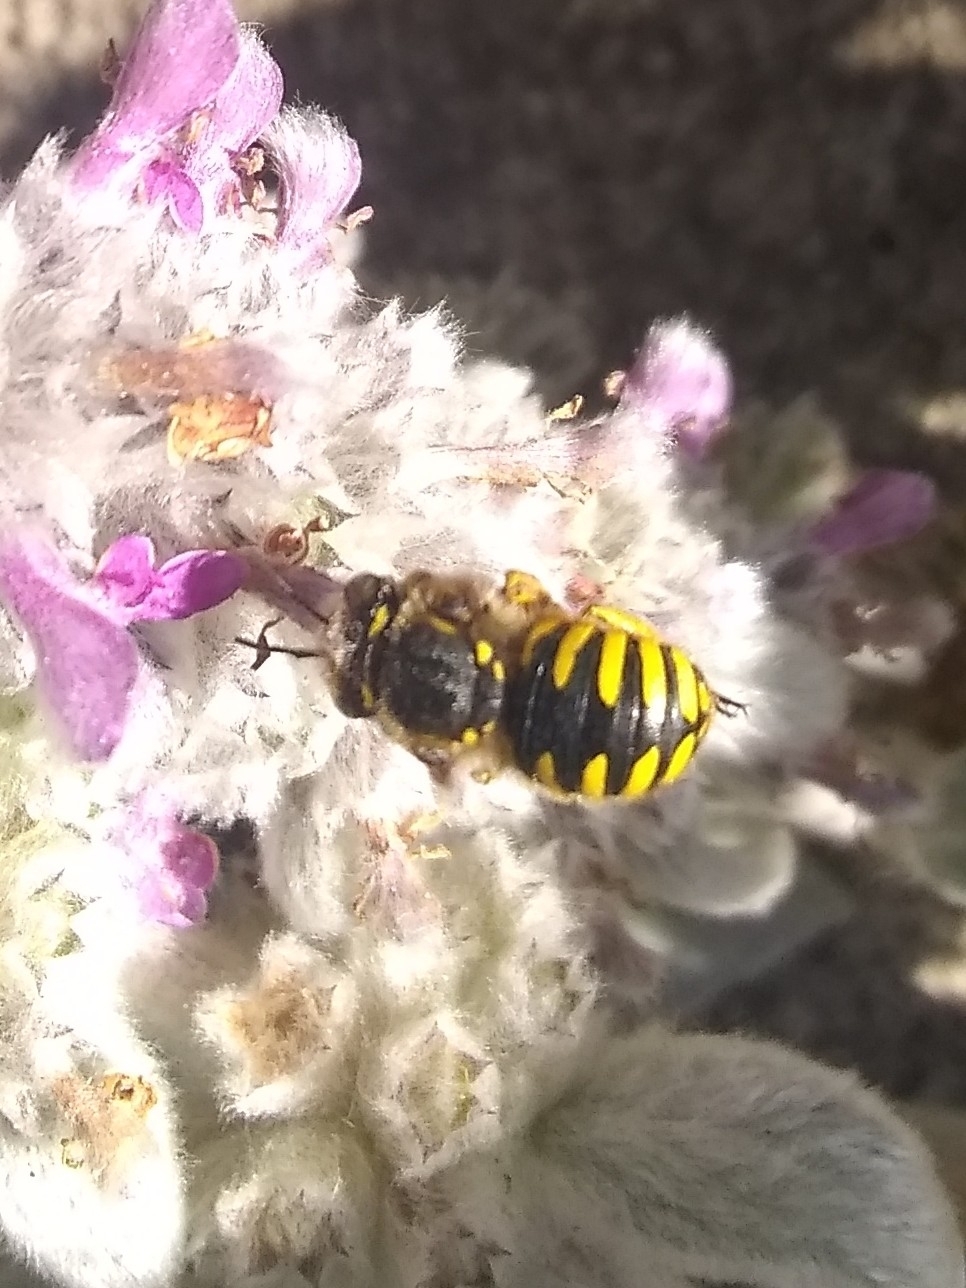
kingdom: Animalia
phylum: Arthropoda
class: Insecta
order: Hymenoptera
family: Megachilidae
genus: Anthidium
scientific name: Anthidium manicatum
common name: Wool carder bee
